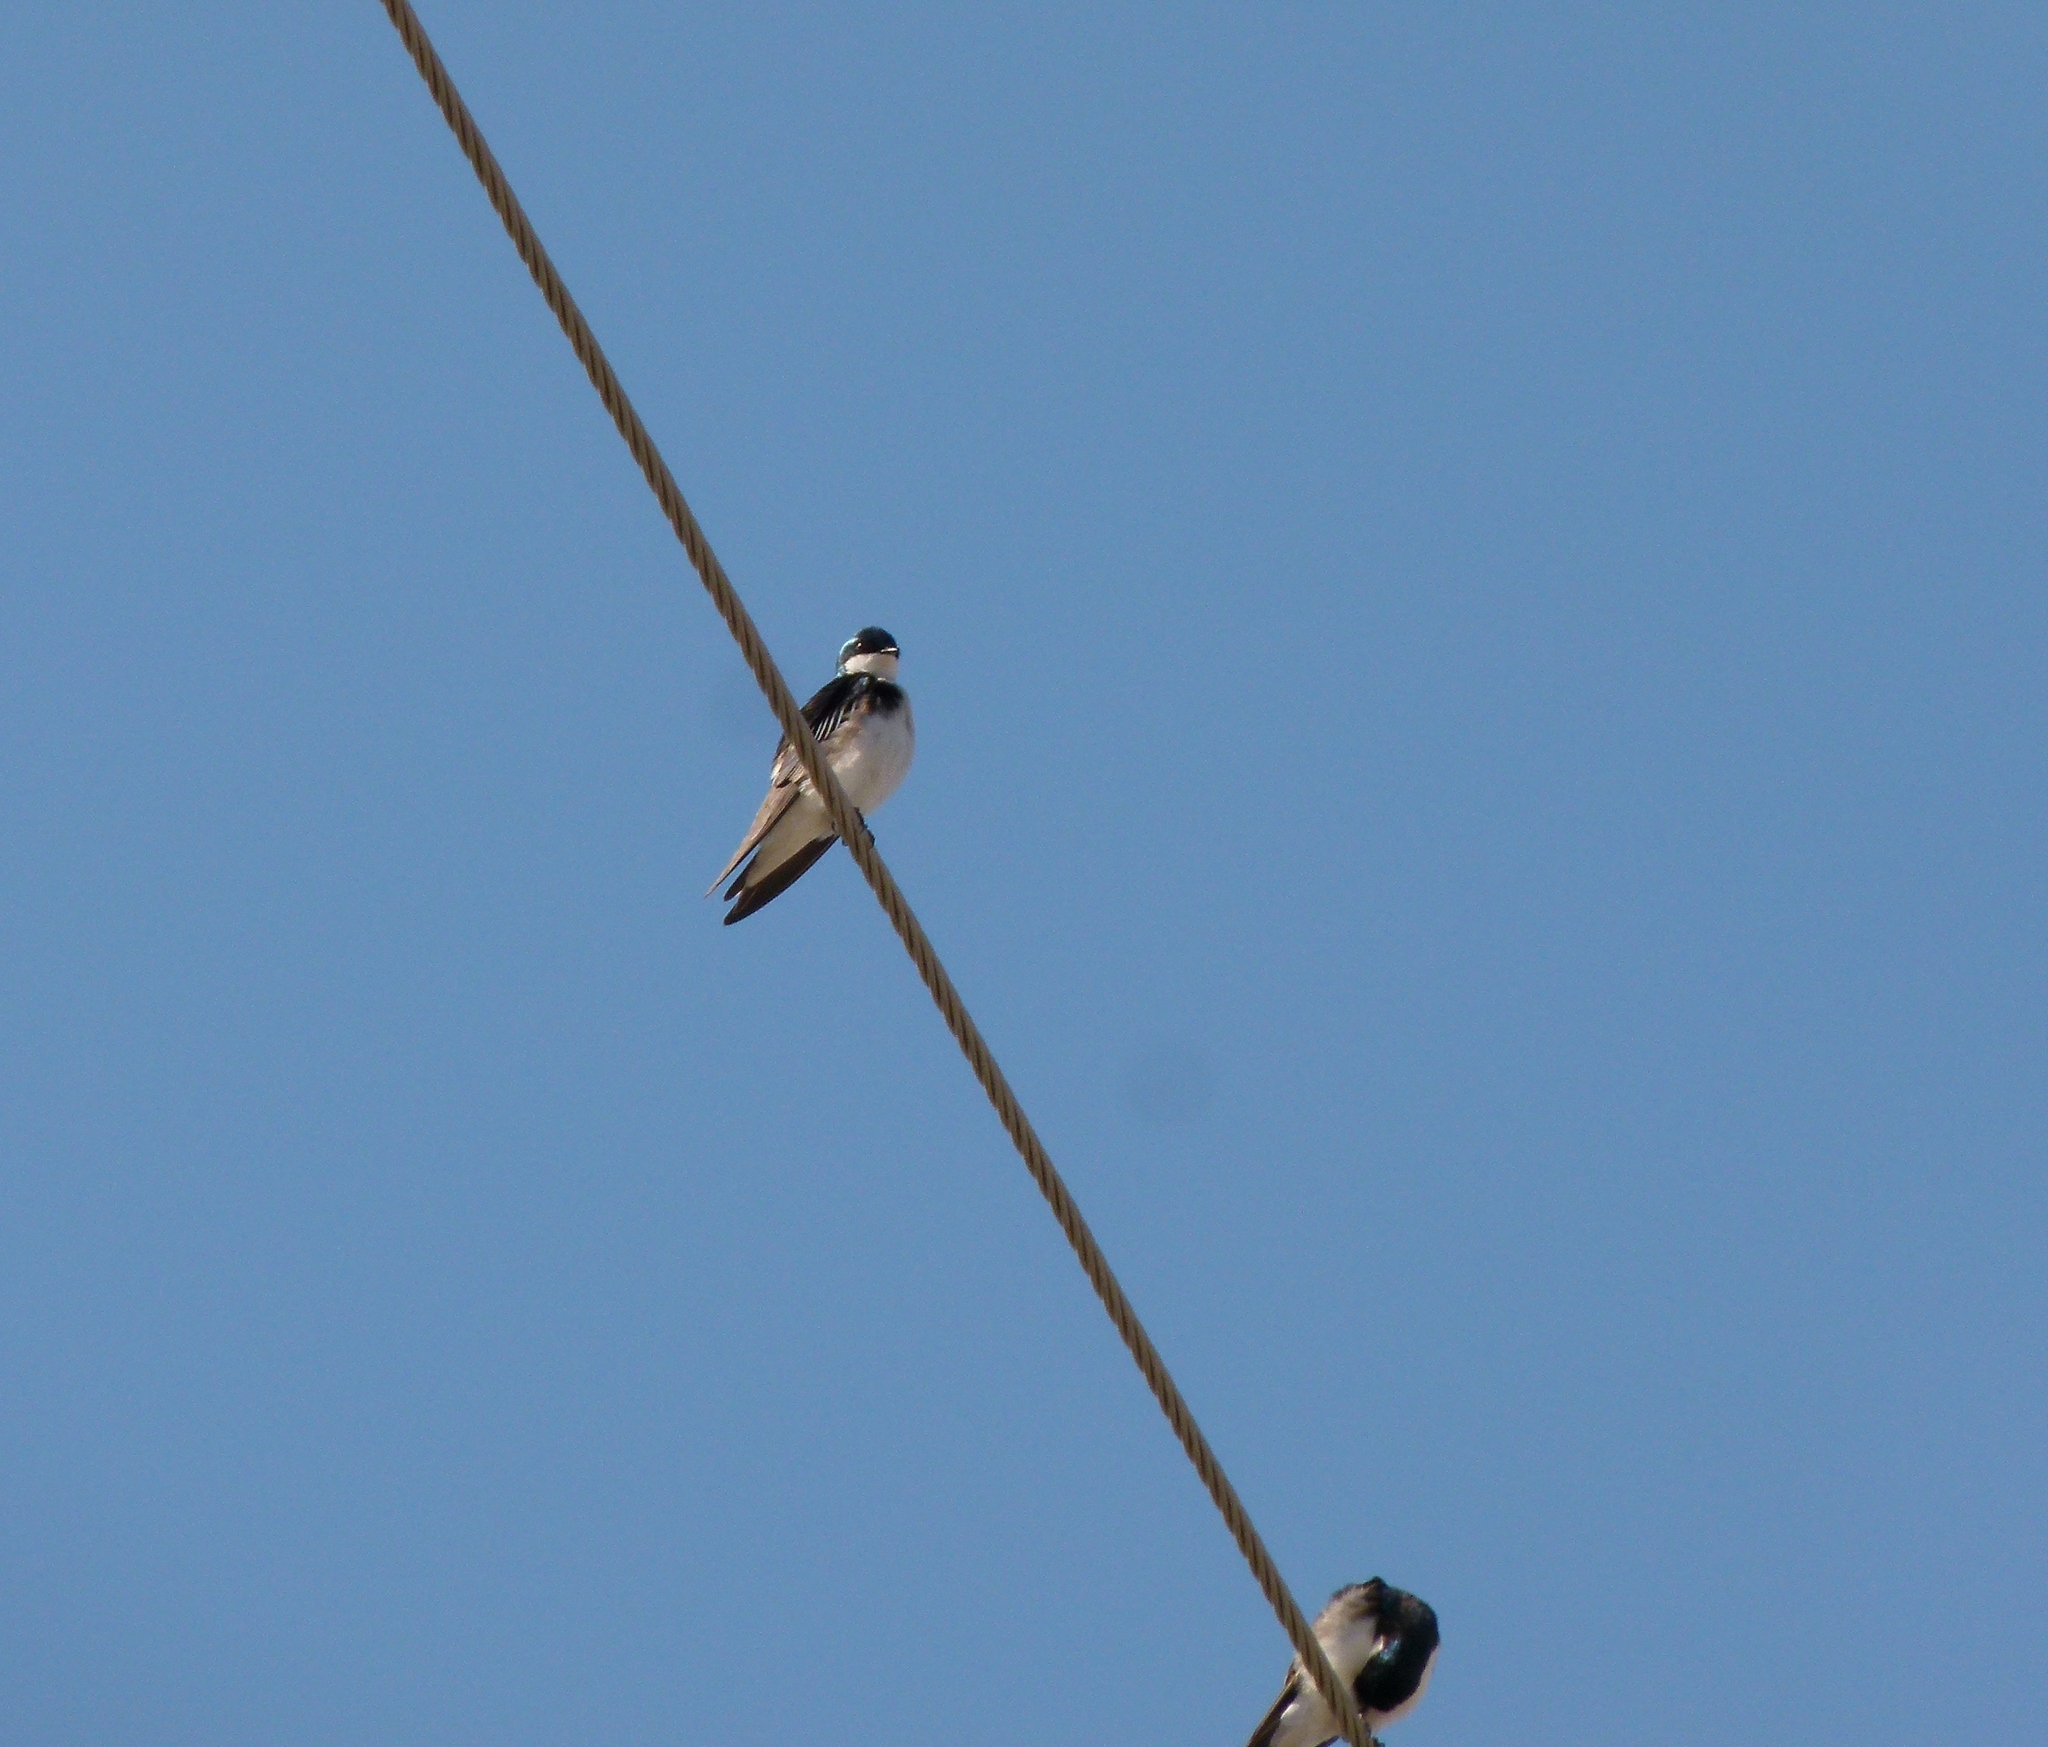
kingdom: Animalia
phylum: Chordata
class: Aves
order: Passeriformes
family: Hirundinidae
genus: Tachycineta
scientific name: Tachycineta bicolor
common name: Tree swallow
